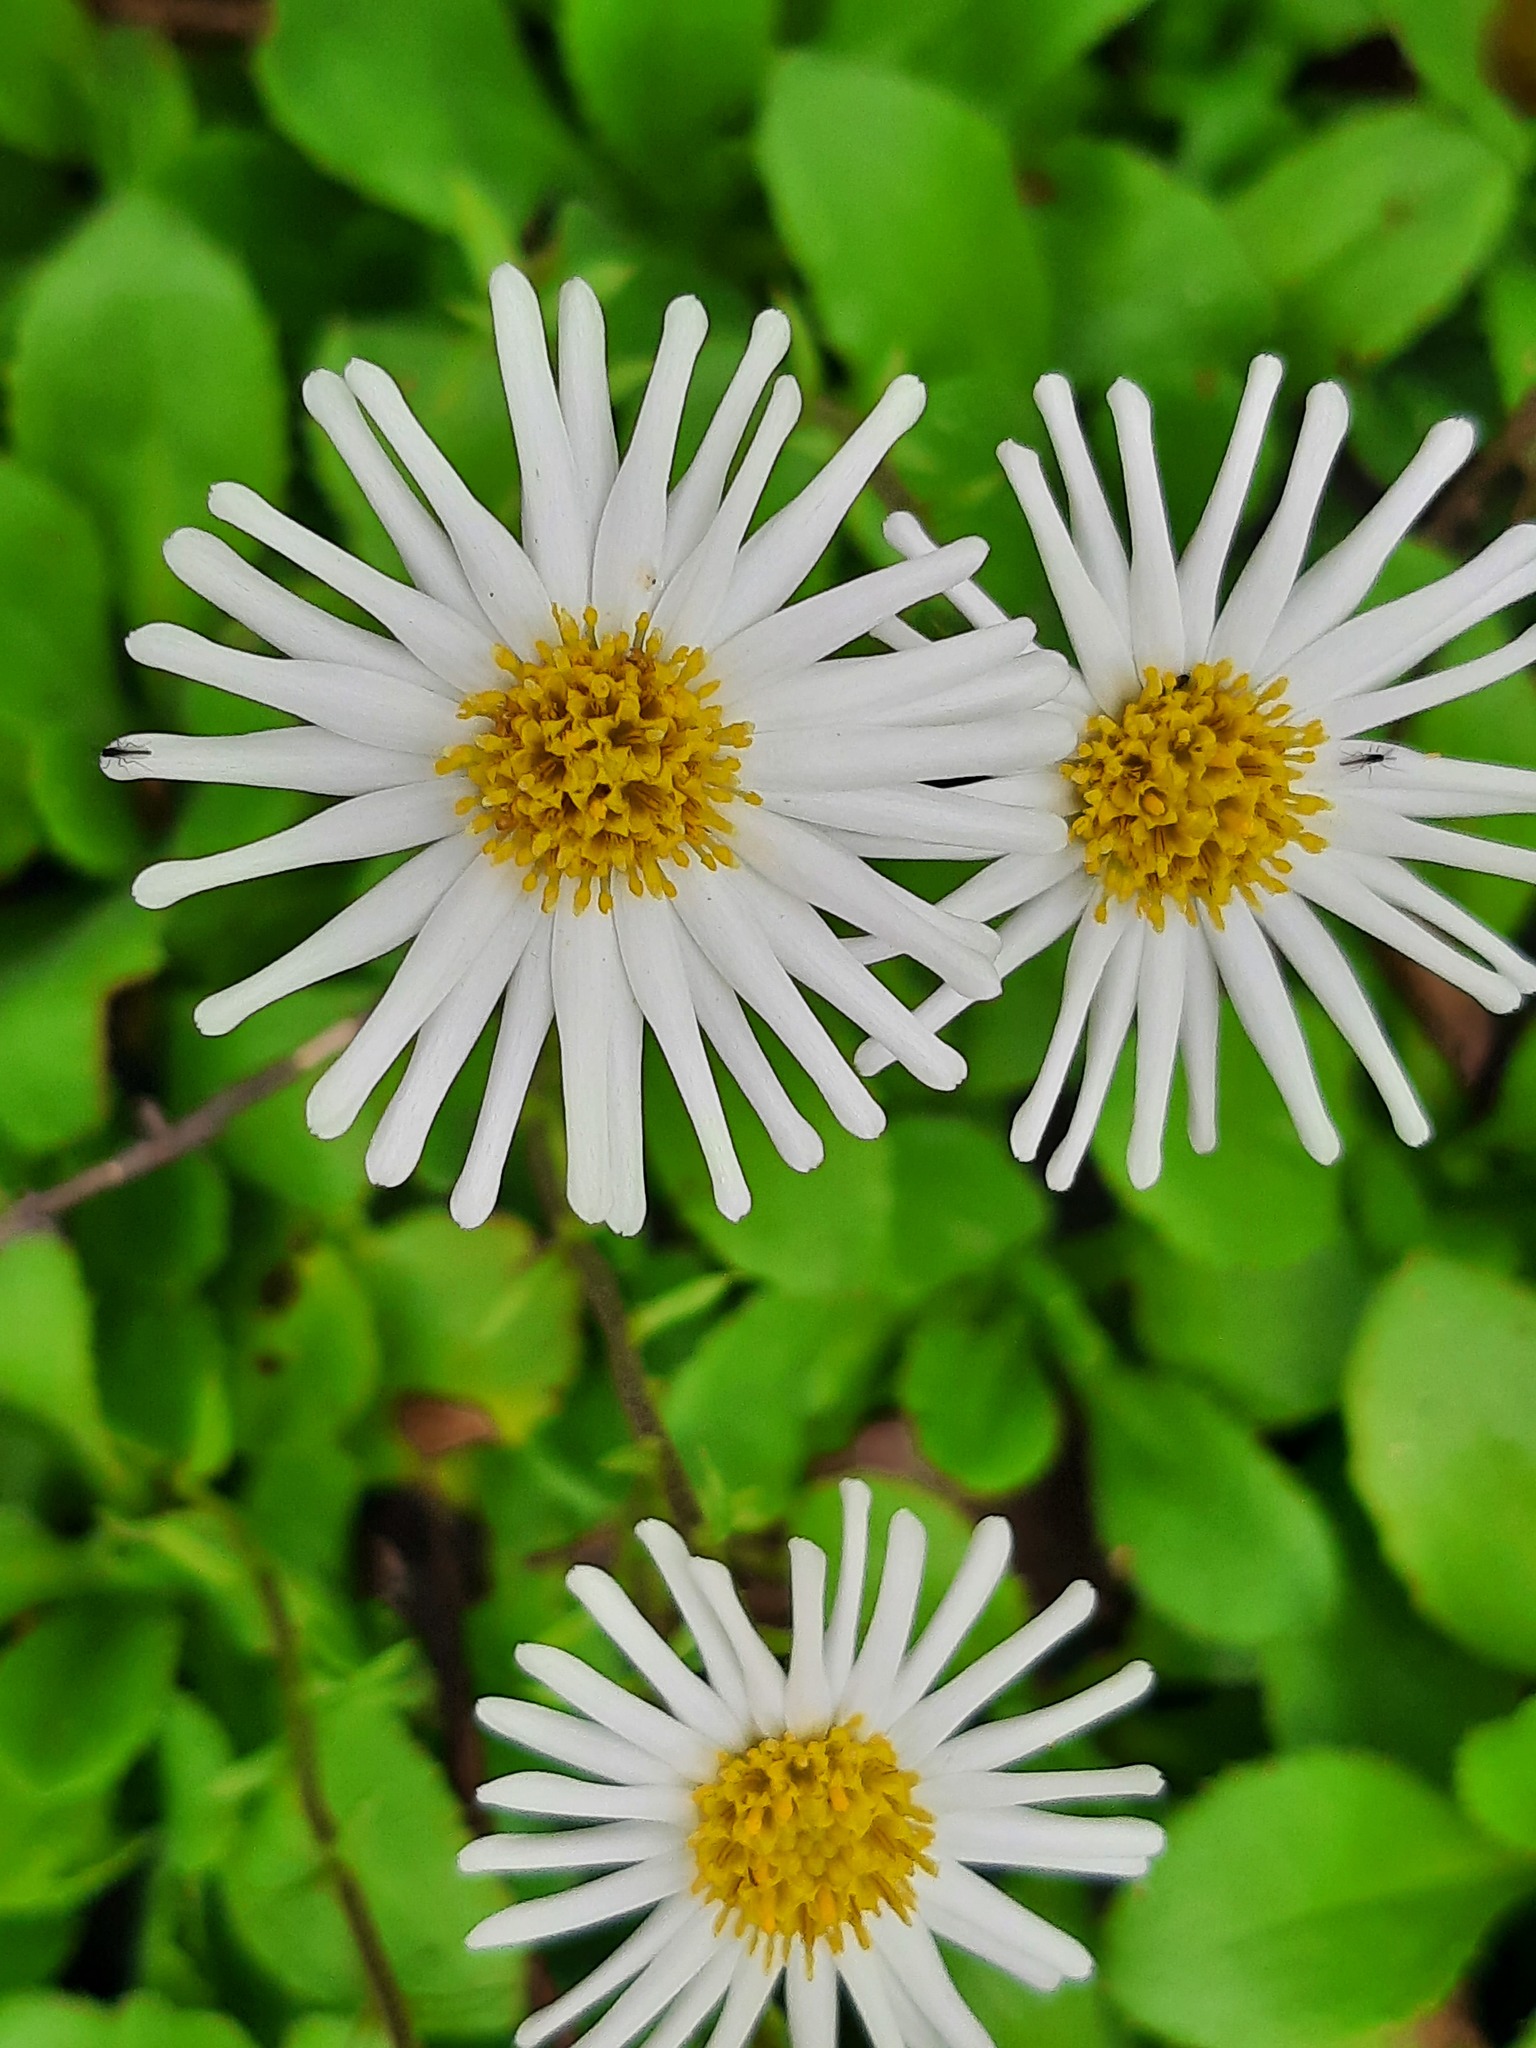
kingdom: Plantae
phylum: Tracheophyta
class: Magnoliopsida
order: Asterales
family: Asteraceae
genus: Celmisia
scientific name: Celmisia glandulosa
